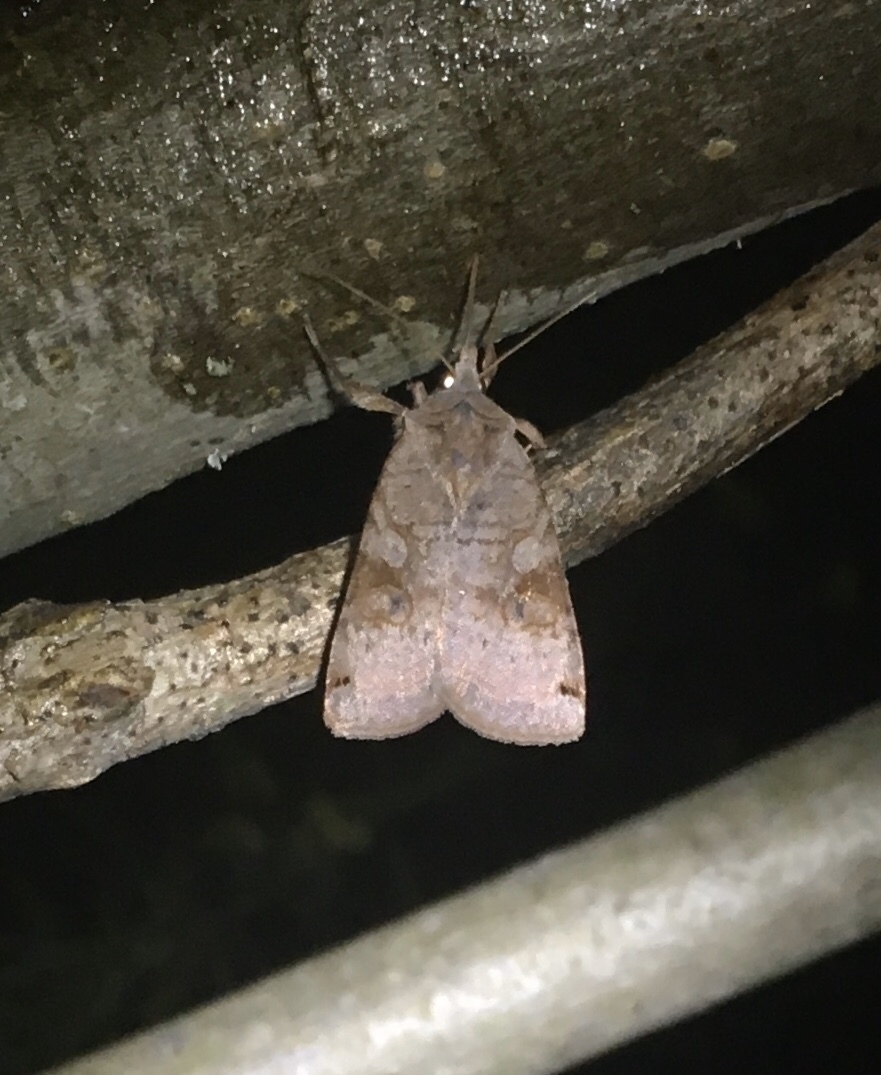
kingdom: Animalia
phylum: Arthropoda
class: Insecta
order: Lepidoptera
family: Noctuidae
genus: Xestia
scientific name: Xestia smithii
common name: Smith's dart
